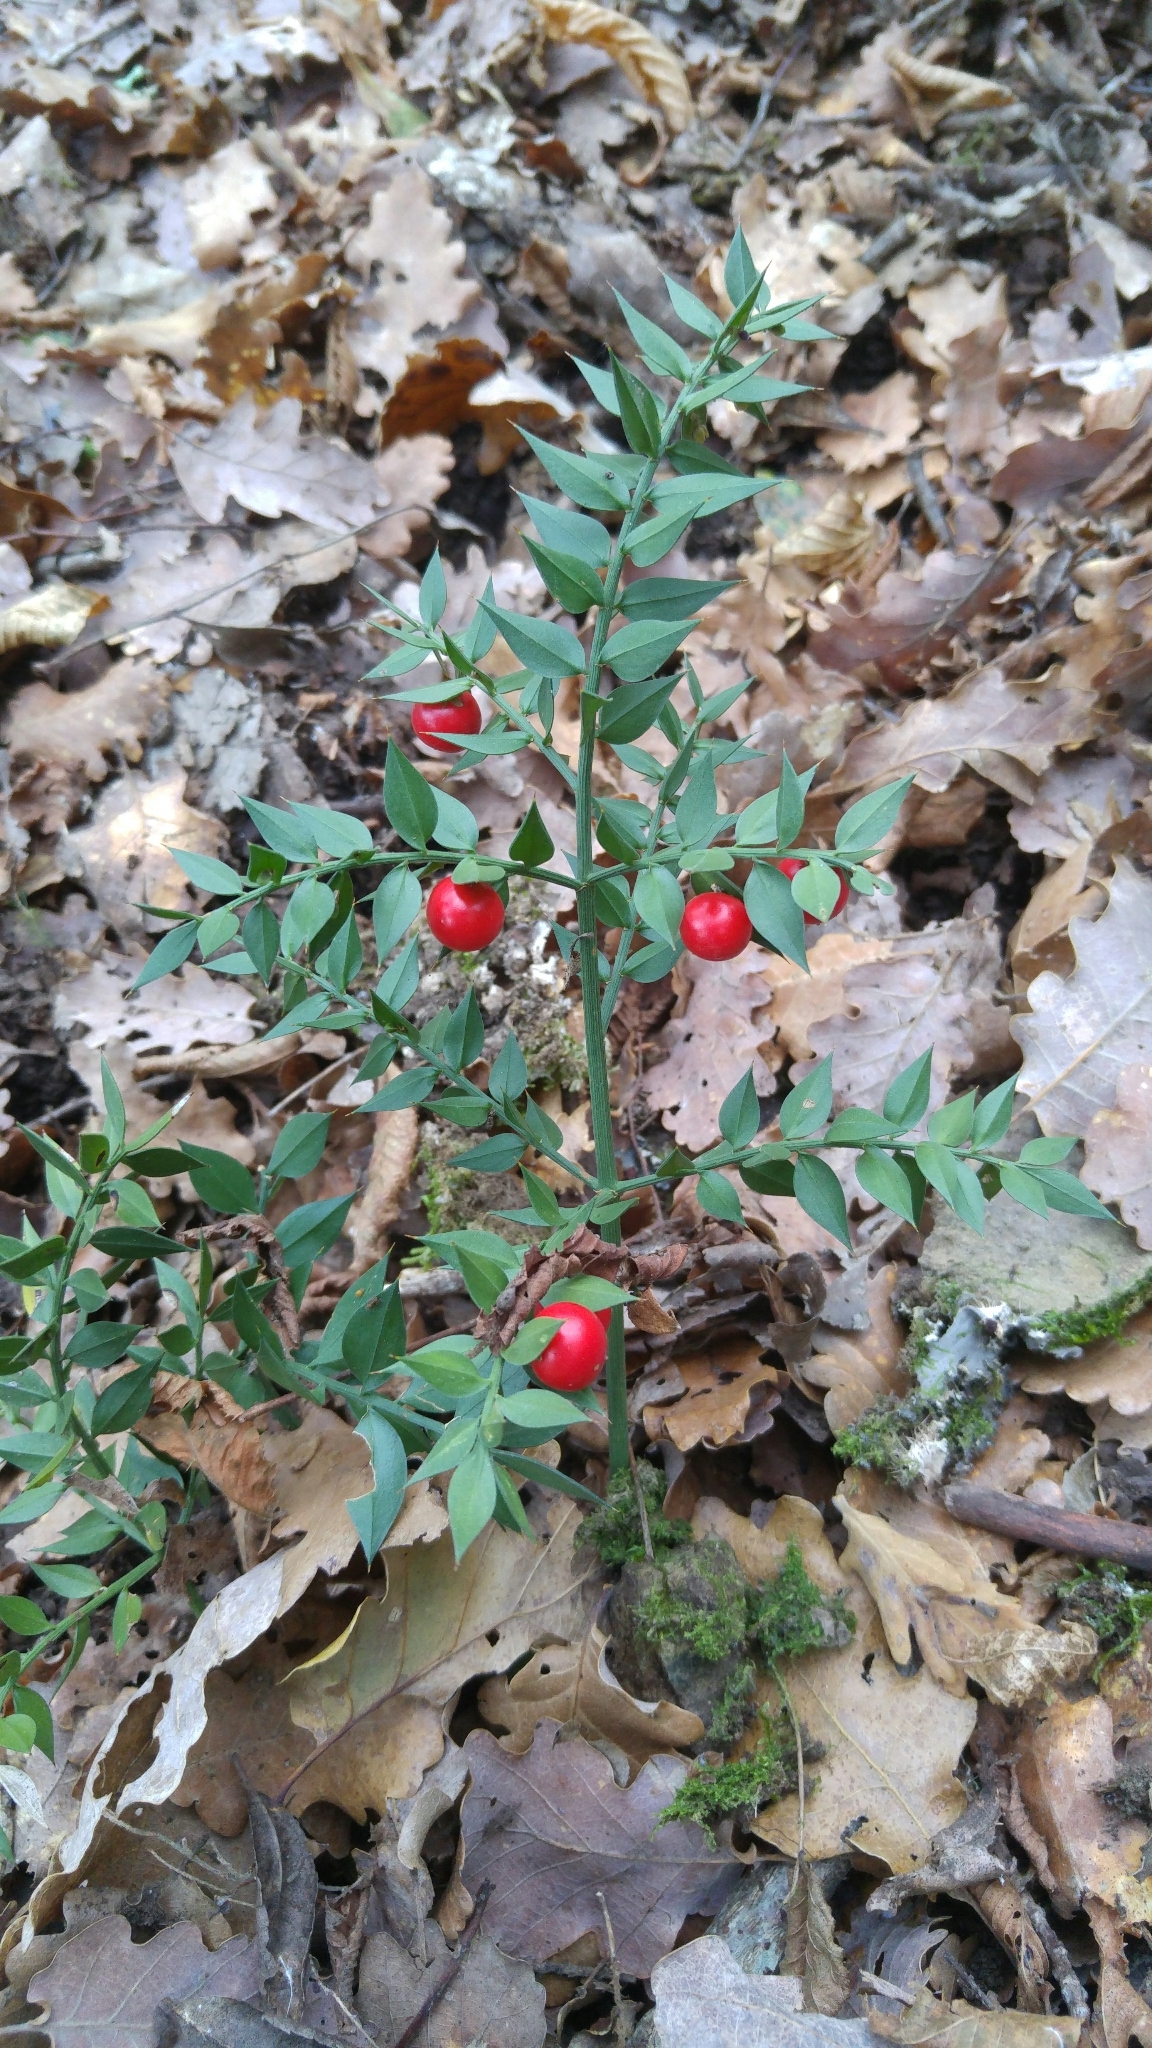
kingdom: Plantae
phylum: Tracheophyta
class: Liliopsida
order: Asparagales
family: Asparagaceae
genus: Ruscus
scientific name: Ruscus aculeatus
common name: Butcher's-broom
